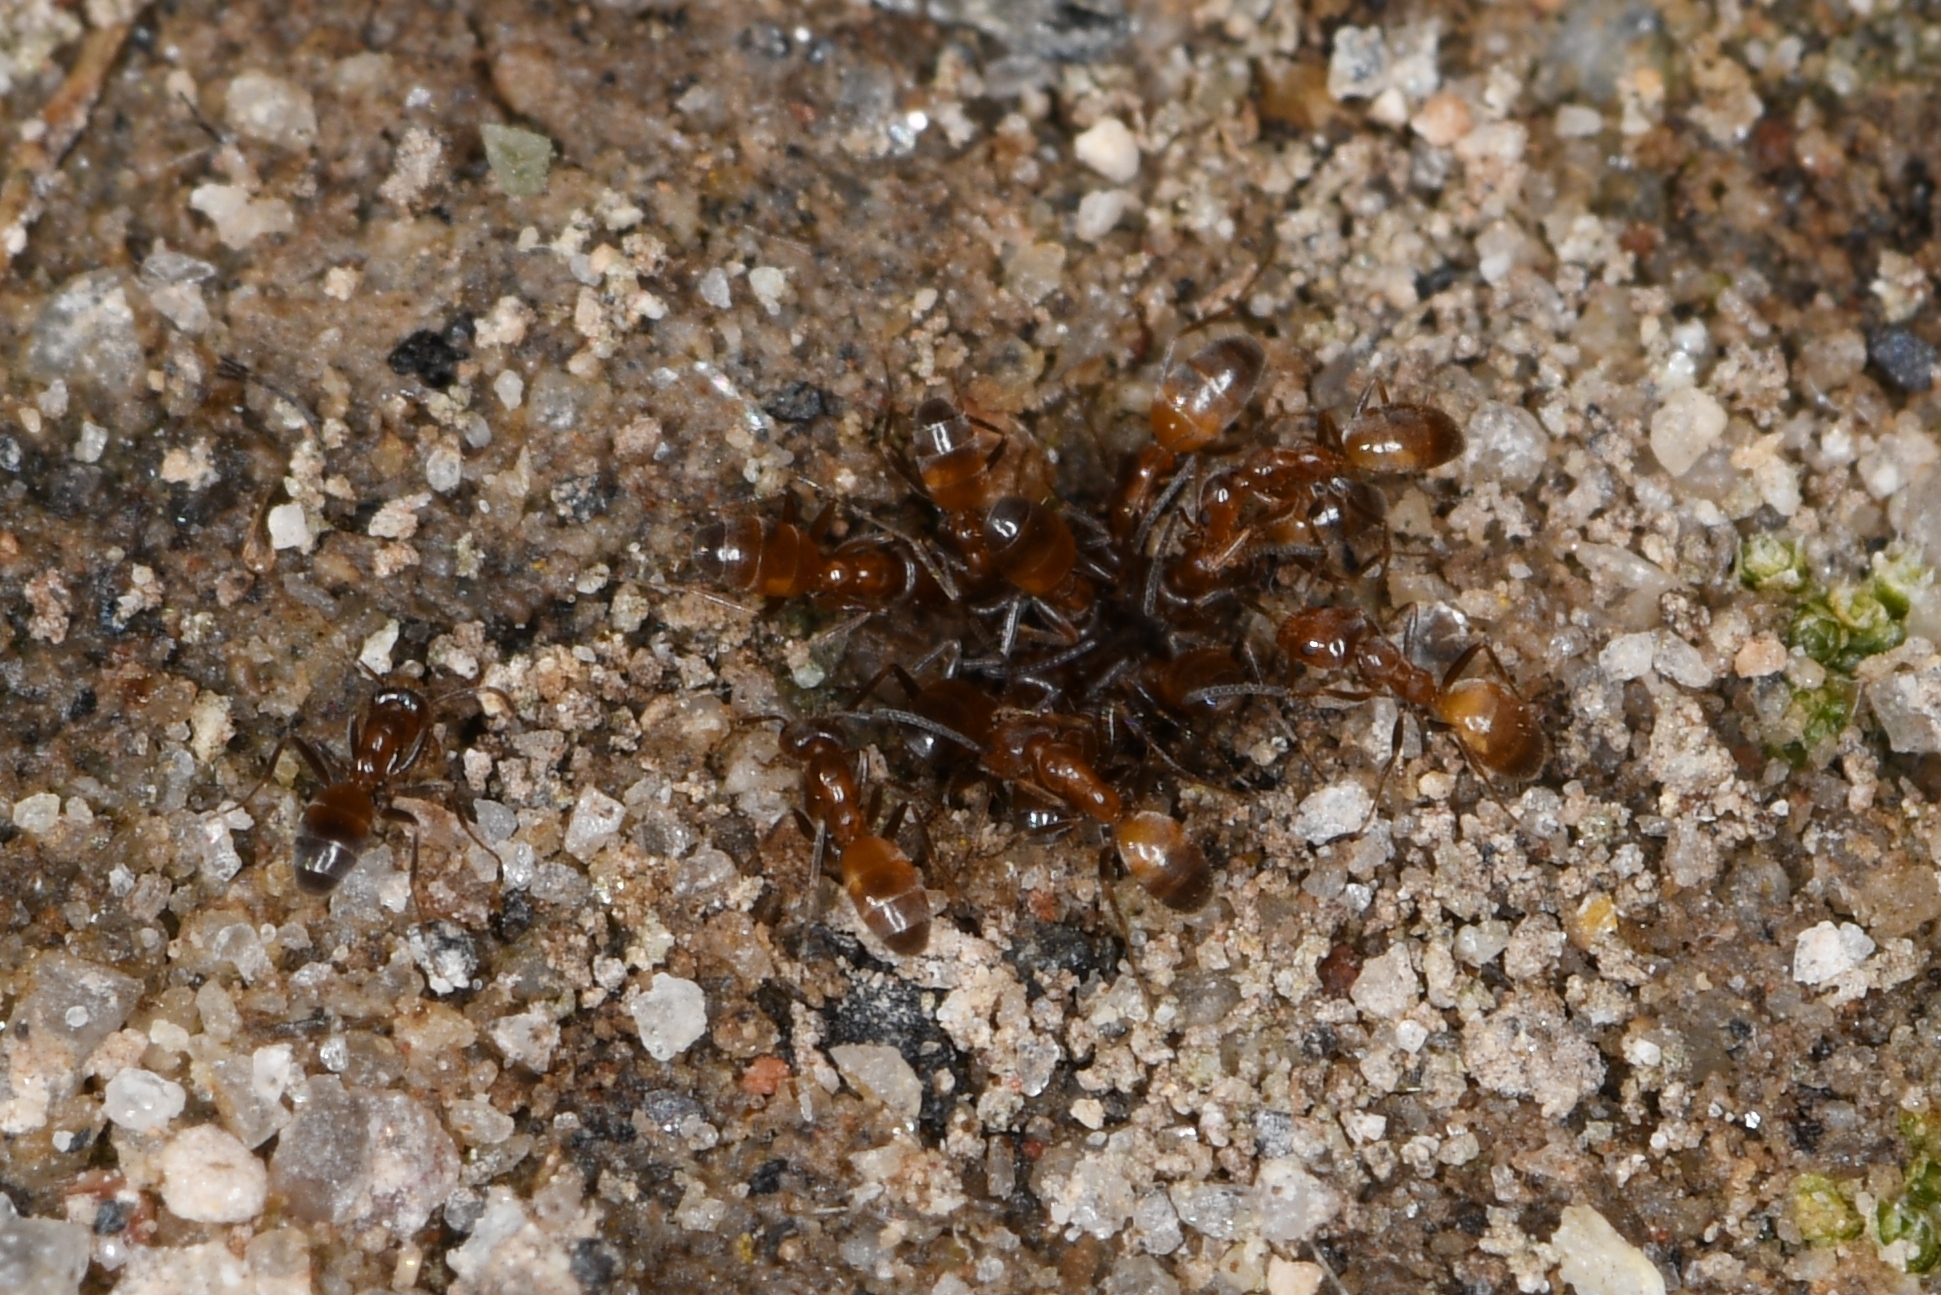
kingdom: Animalia
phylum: Arthropoda
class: Insecta
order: Hymenoptera
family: Formicidae
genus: Forelius
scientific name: Forelius mccooki
